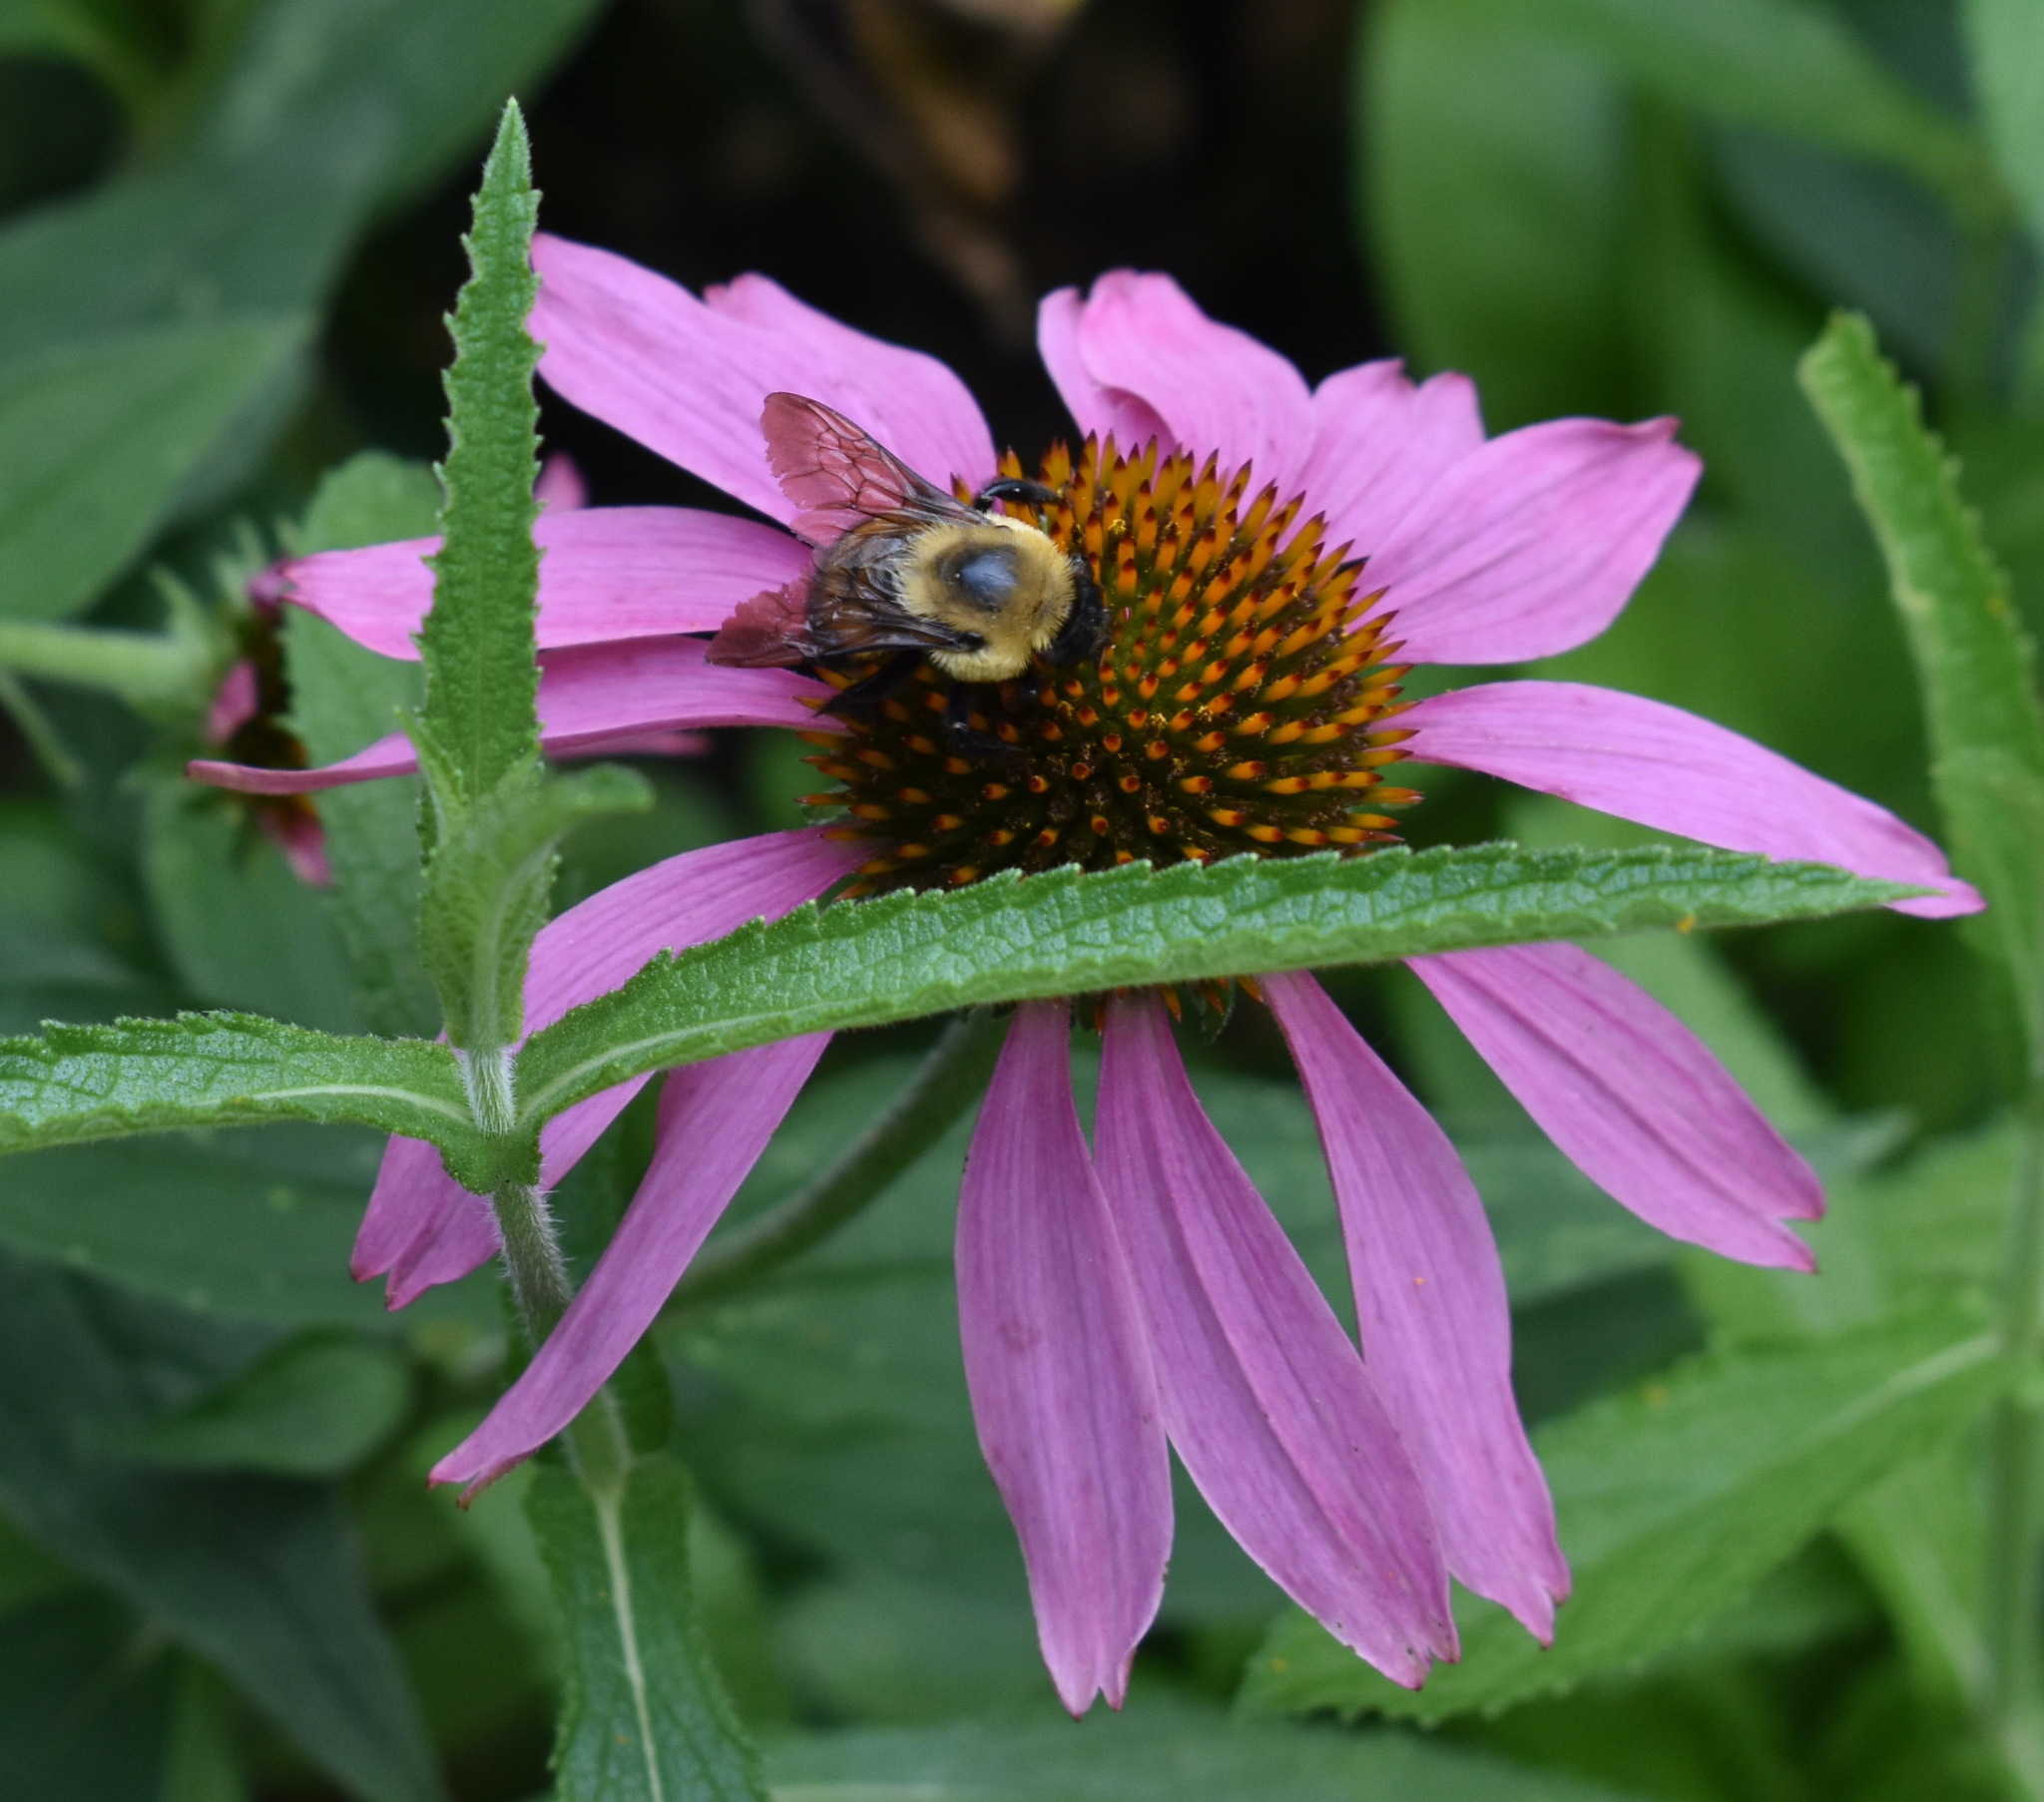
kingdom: Animalia
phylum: Arthropoda
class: Insecta
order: Hymenoptera
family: Apidae
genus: Bombus
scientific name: Bombus griseocollis
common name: Brown-belted bumble bee
